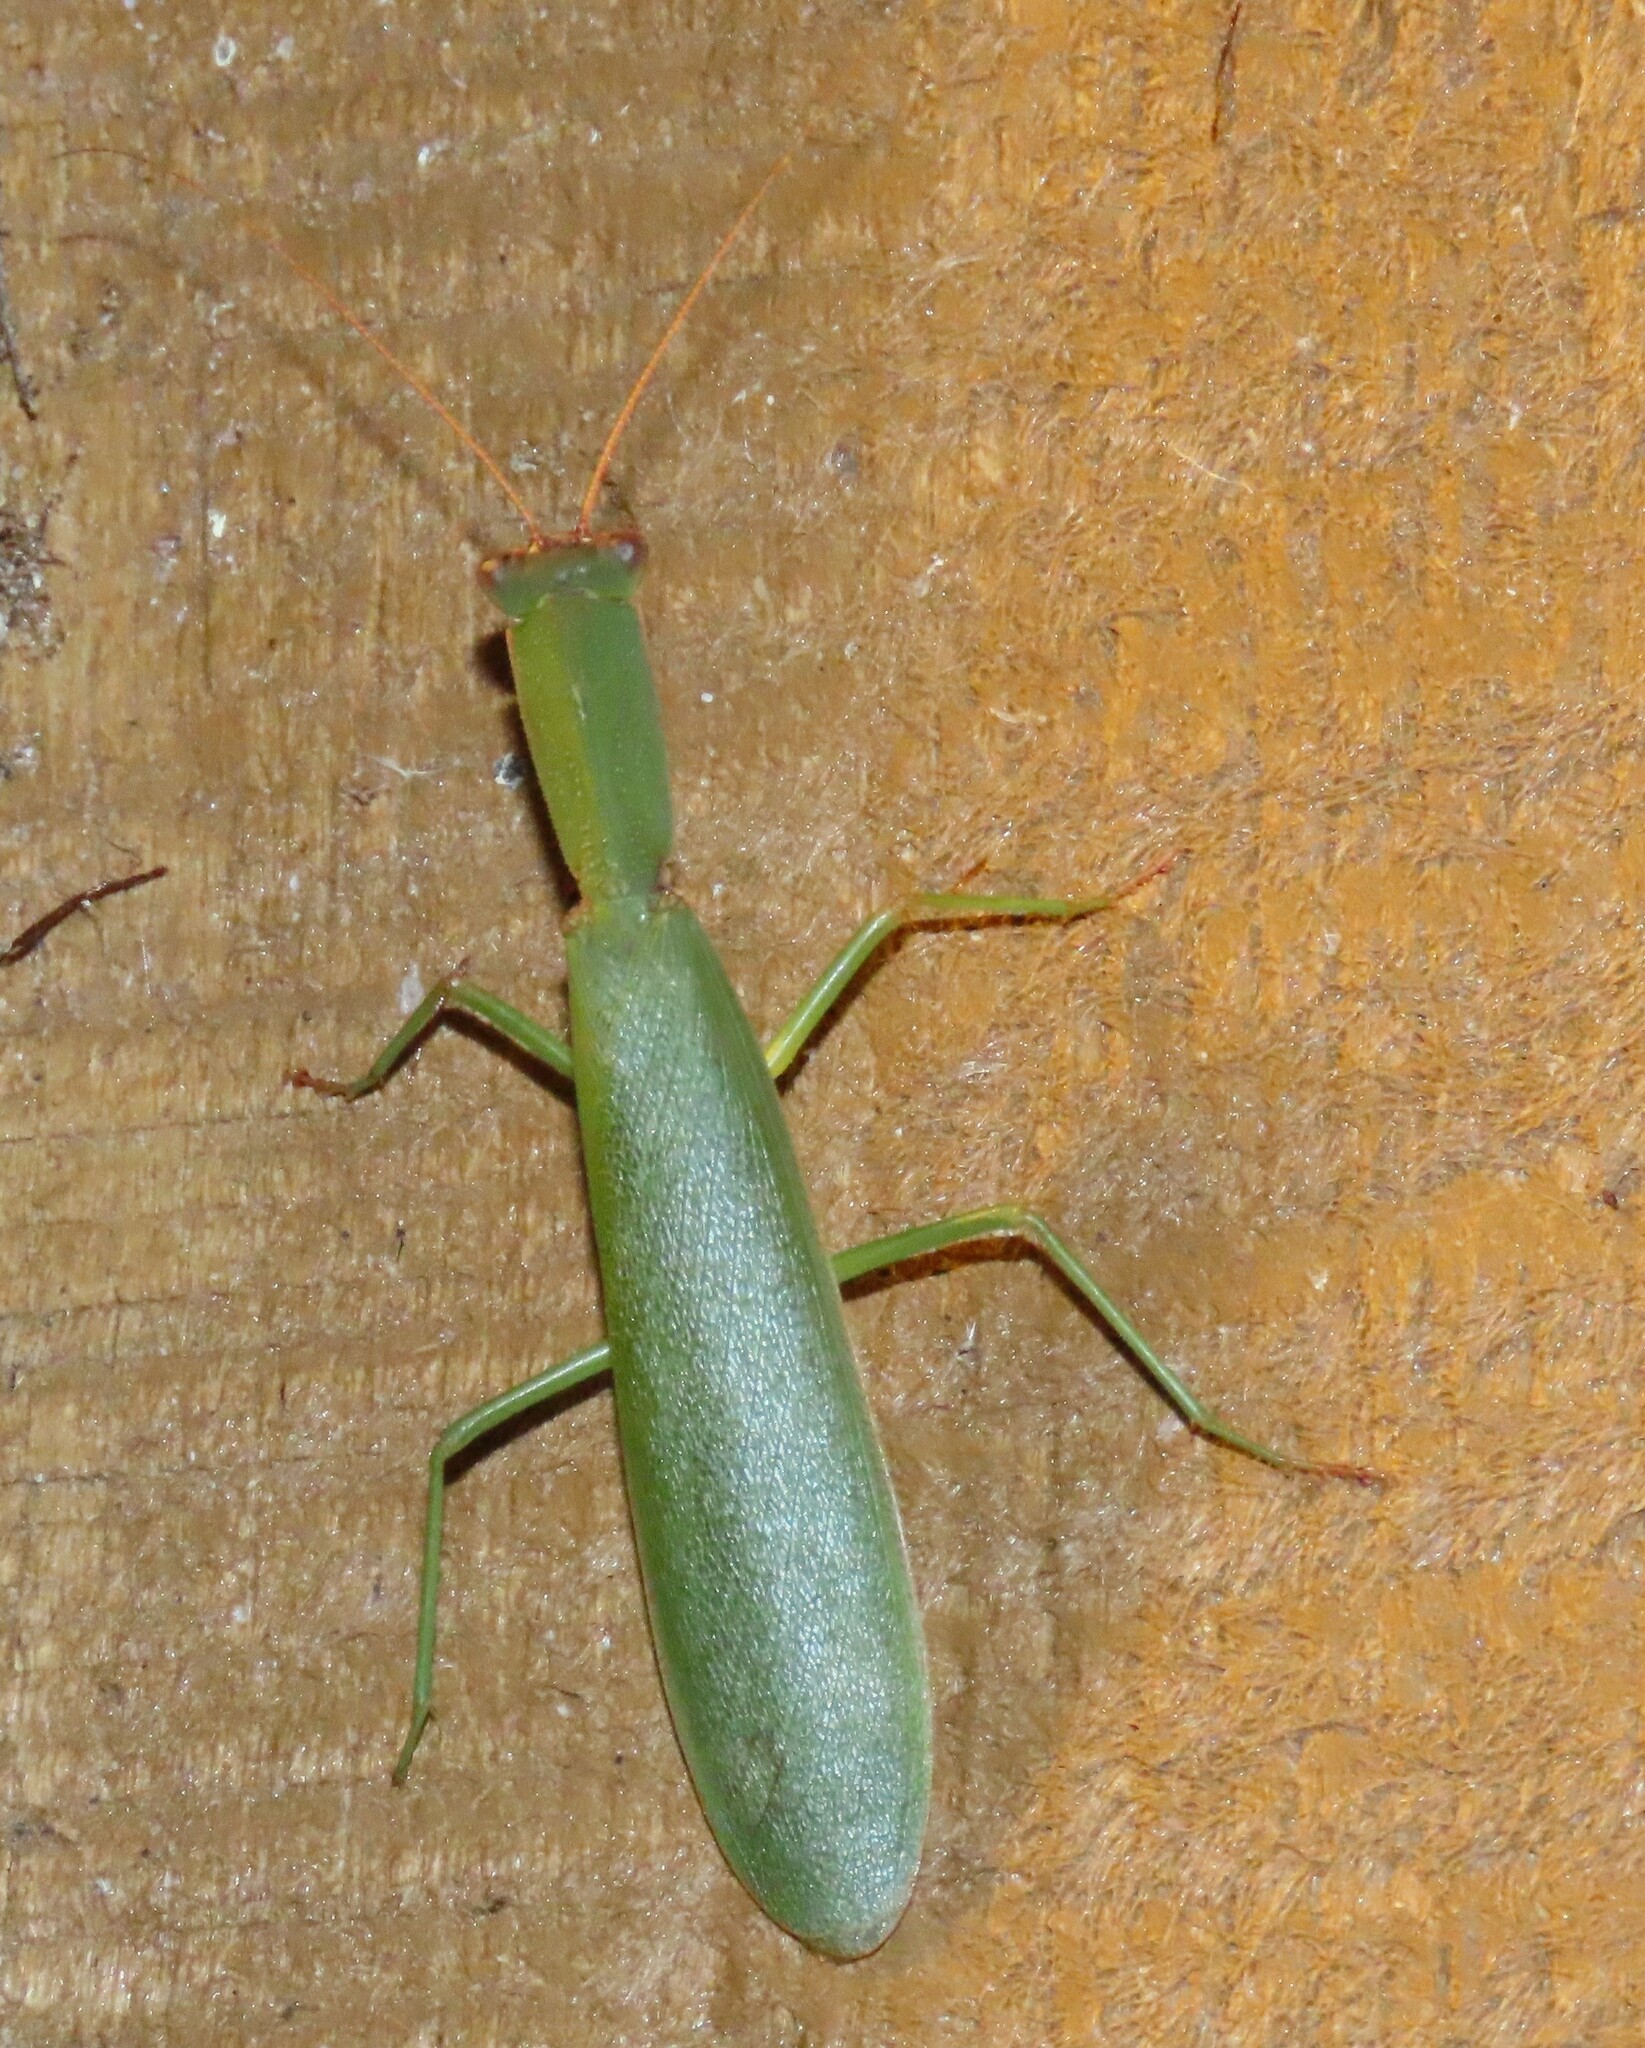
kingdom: Animalia
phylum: Arthropoda
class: Insecta
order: Mantodea
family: Mantidae
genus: Orthodera
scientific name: Orthodera novaezealandiae
